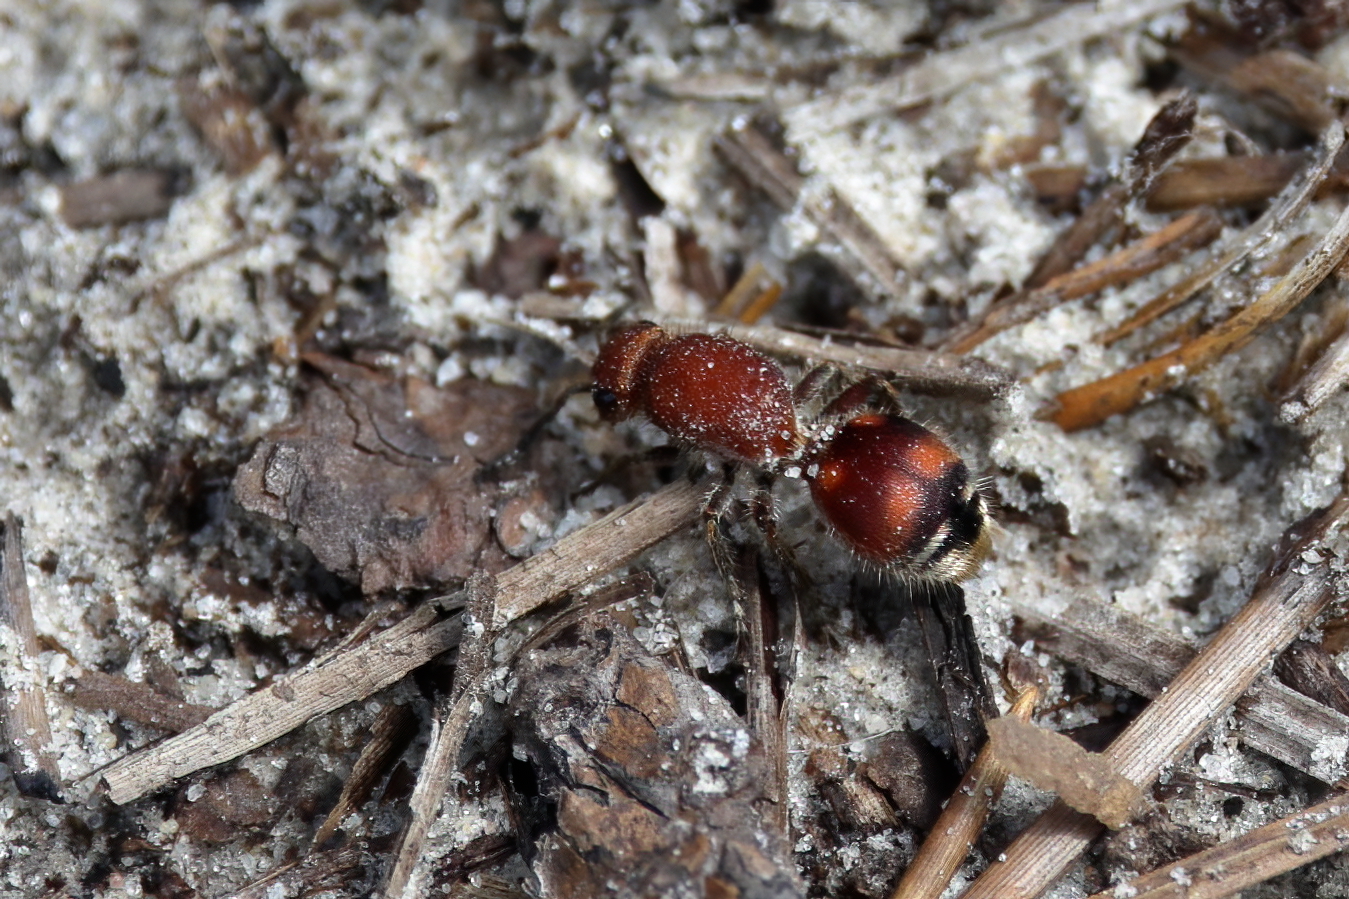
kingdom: Animalia
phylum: Arthropoda
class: Insecta
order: Hymenoptera
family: Mutillidae
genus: Dasymutilla
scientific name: Dasymutilla
